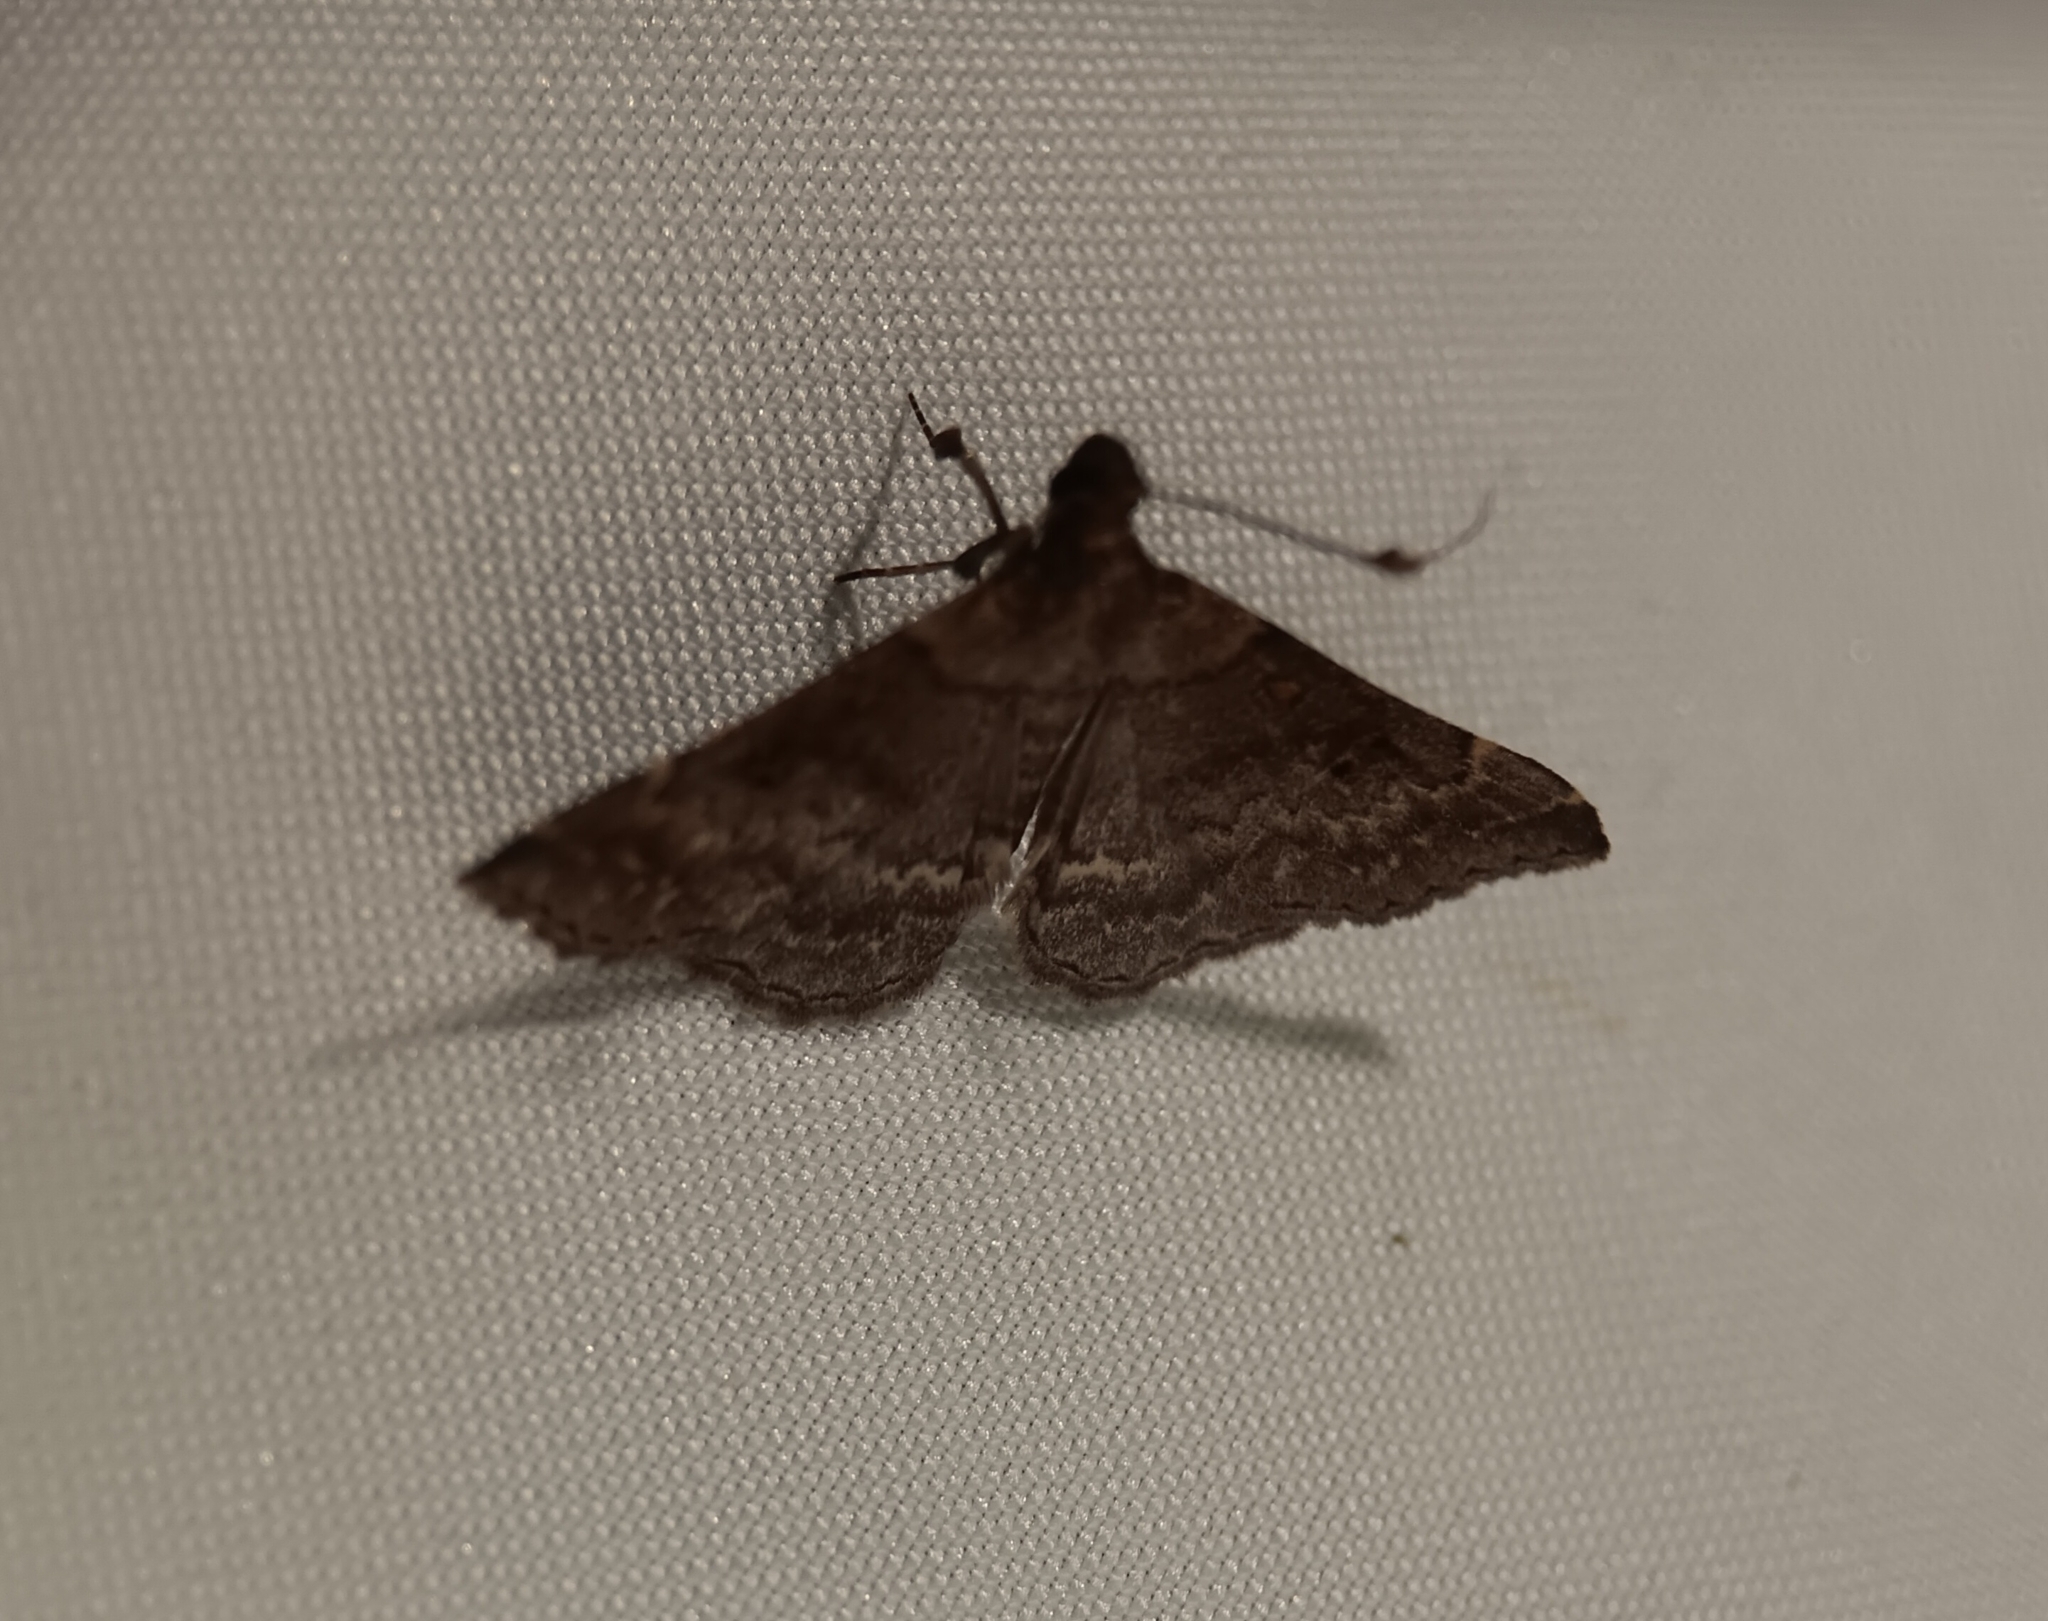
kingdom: Animalia
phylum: Arthropoda
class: Insecta
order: Lepidoptera
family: Erebidae
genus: Renia
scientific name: Renia factiosalis
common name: Sociable renia moth
